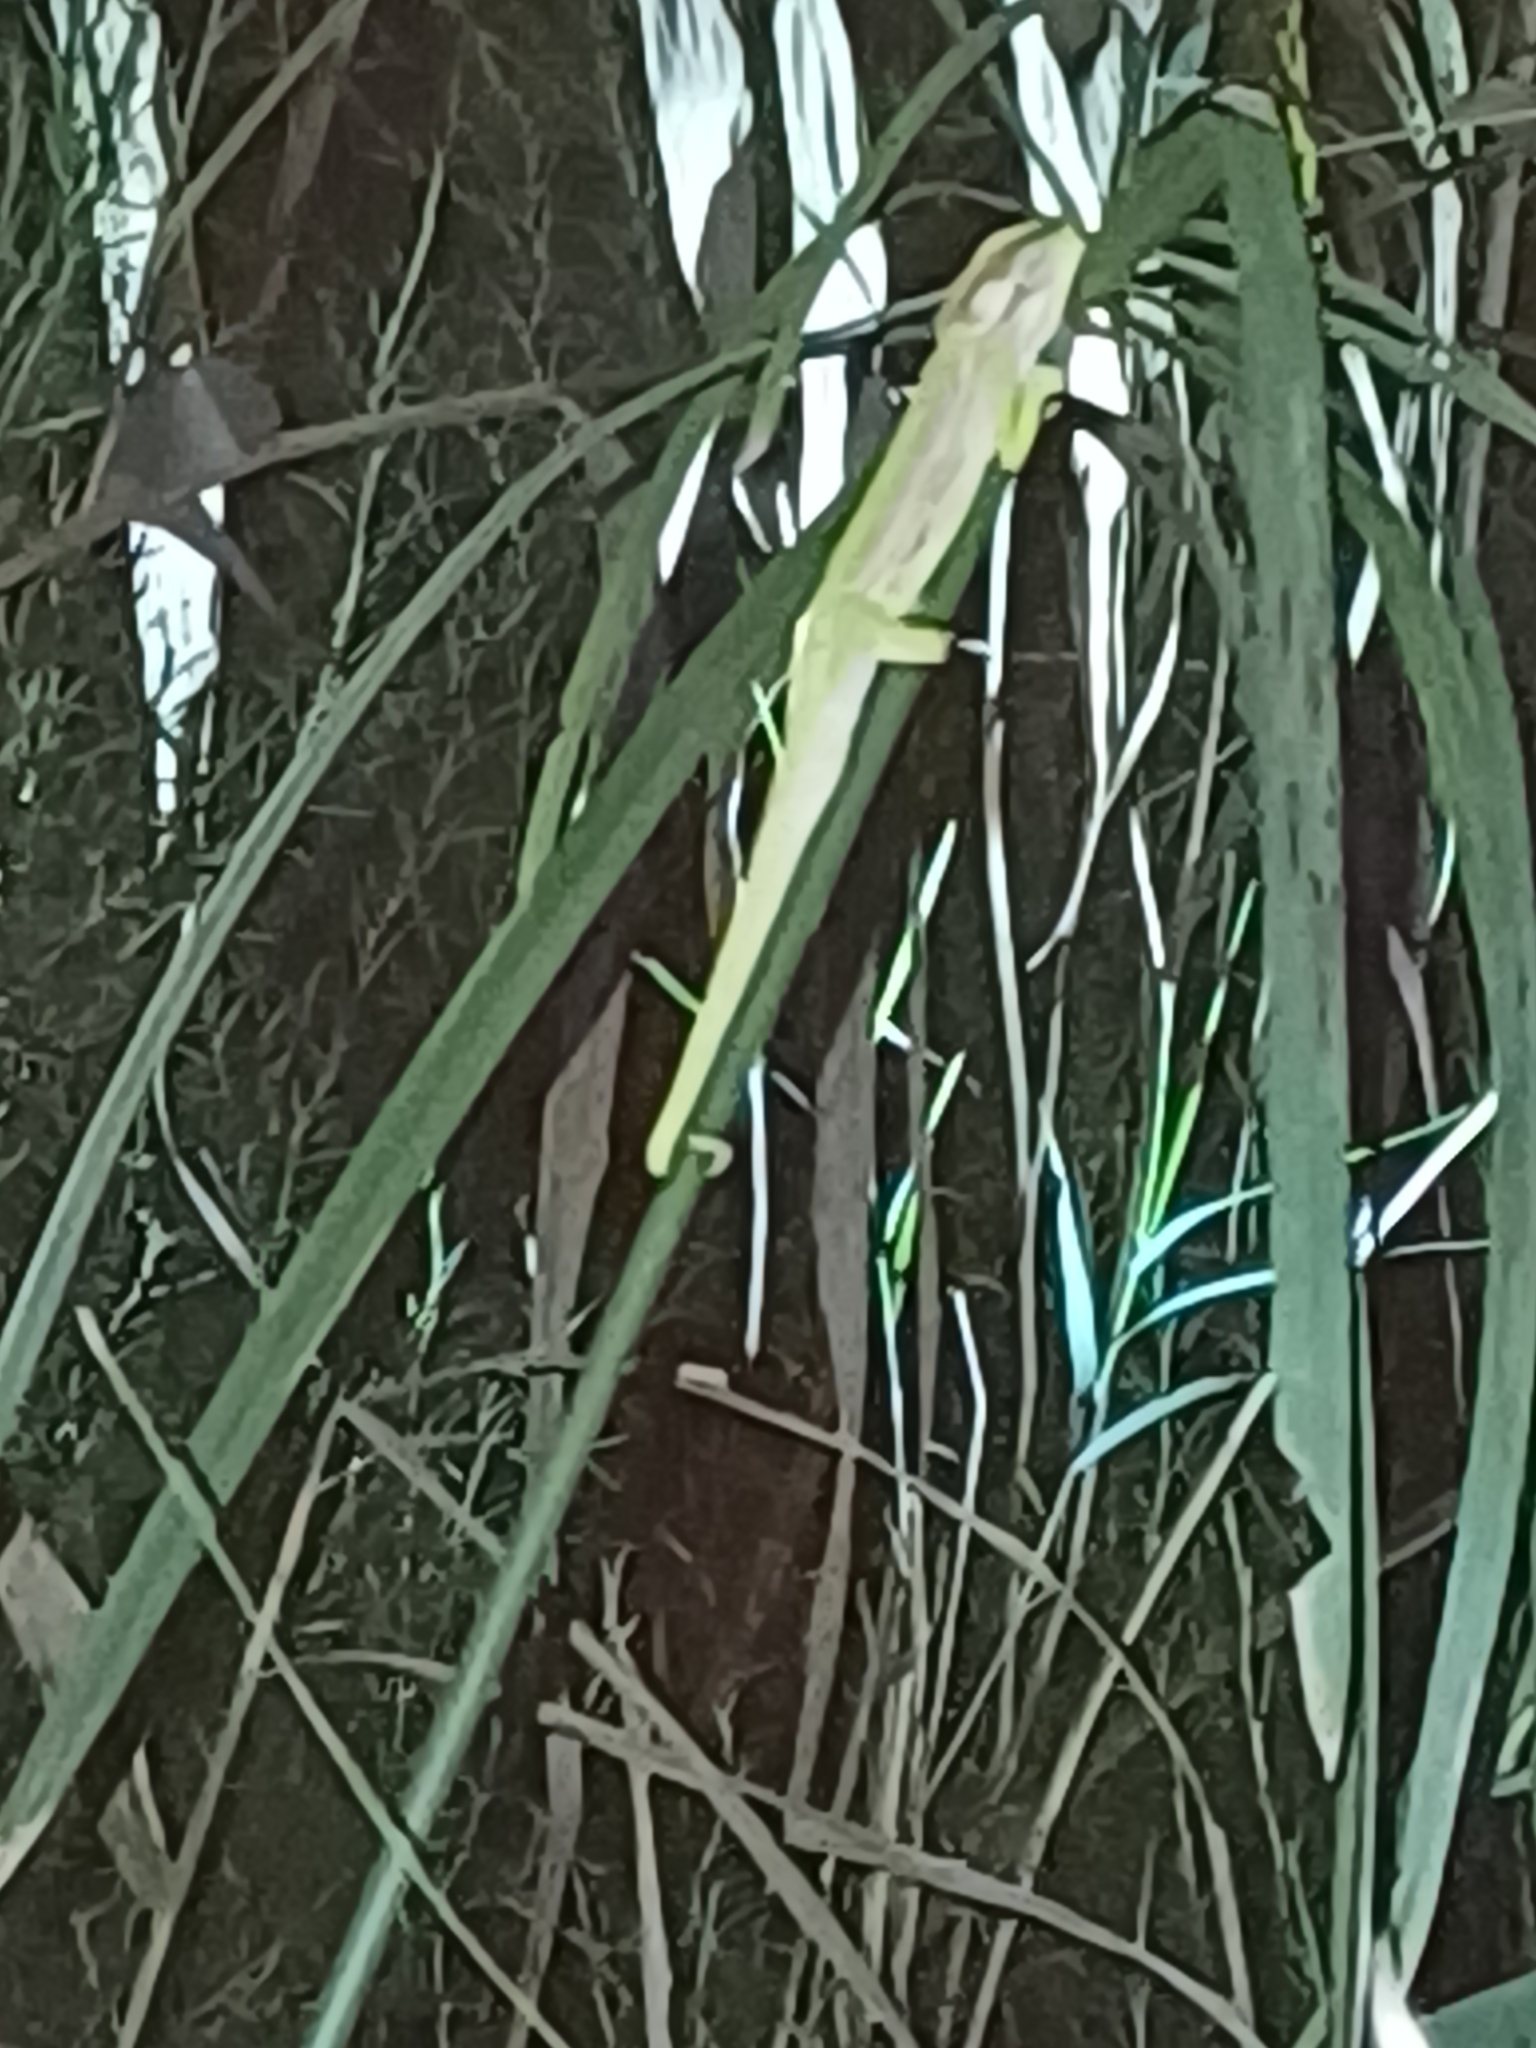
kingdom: Animalia
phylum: Chordata
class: Squamata
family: Chamaeleonidae
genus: Bradypodion
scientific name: Bradypodion pumilum
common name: Cape dwarf chameleon
